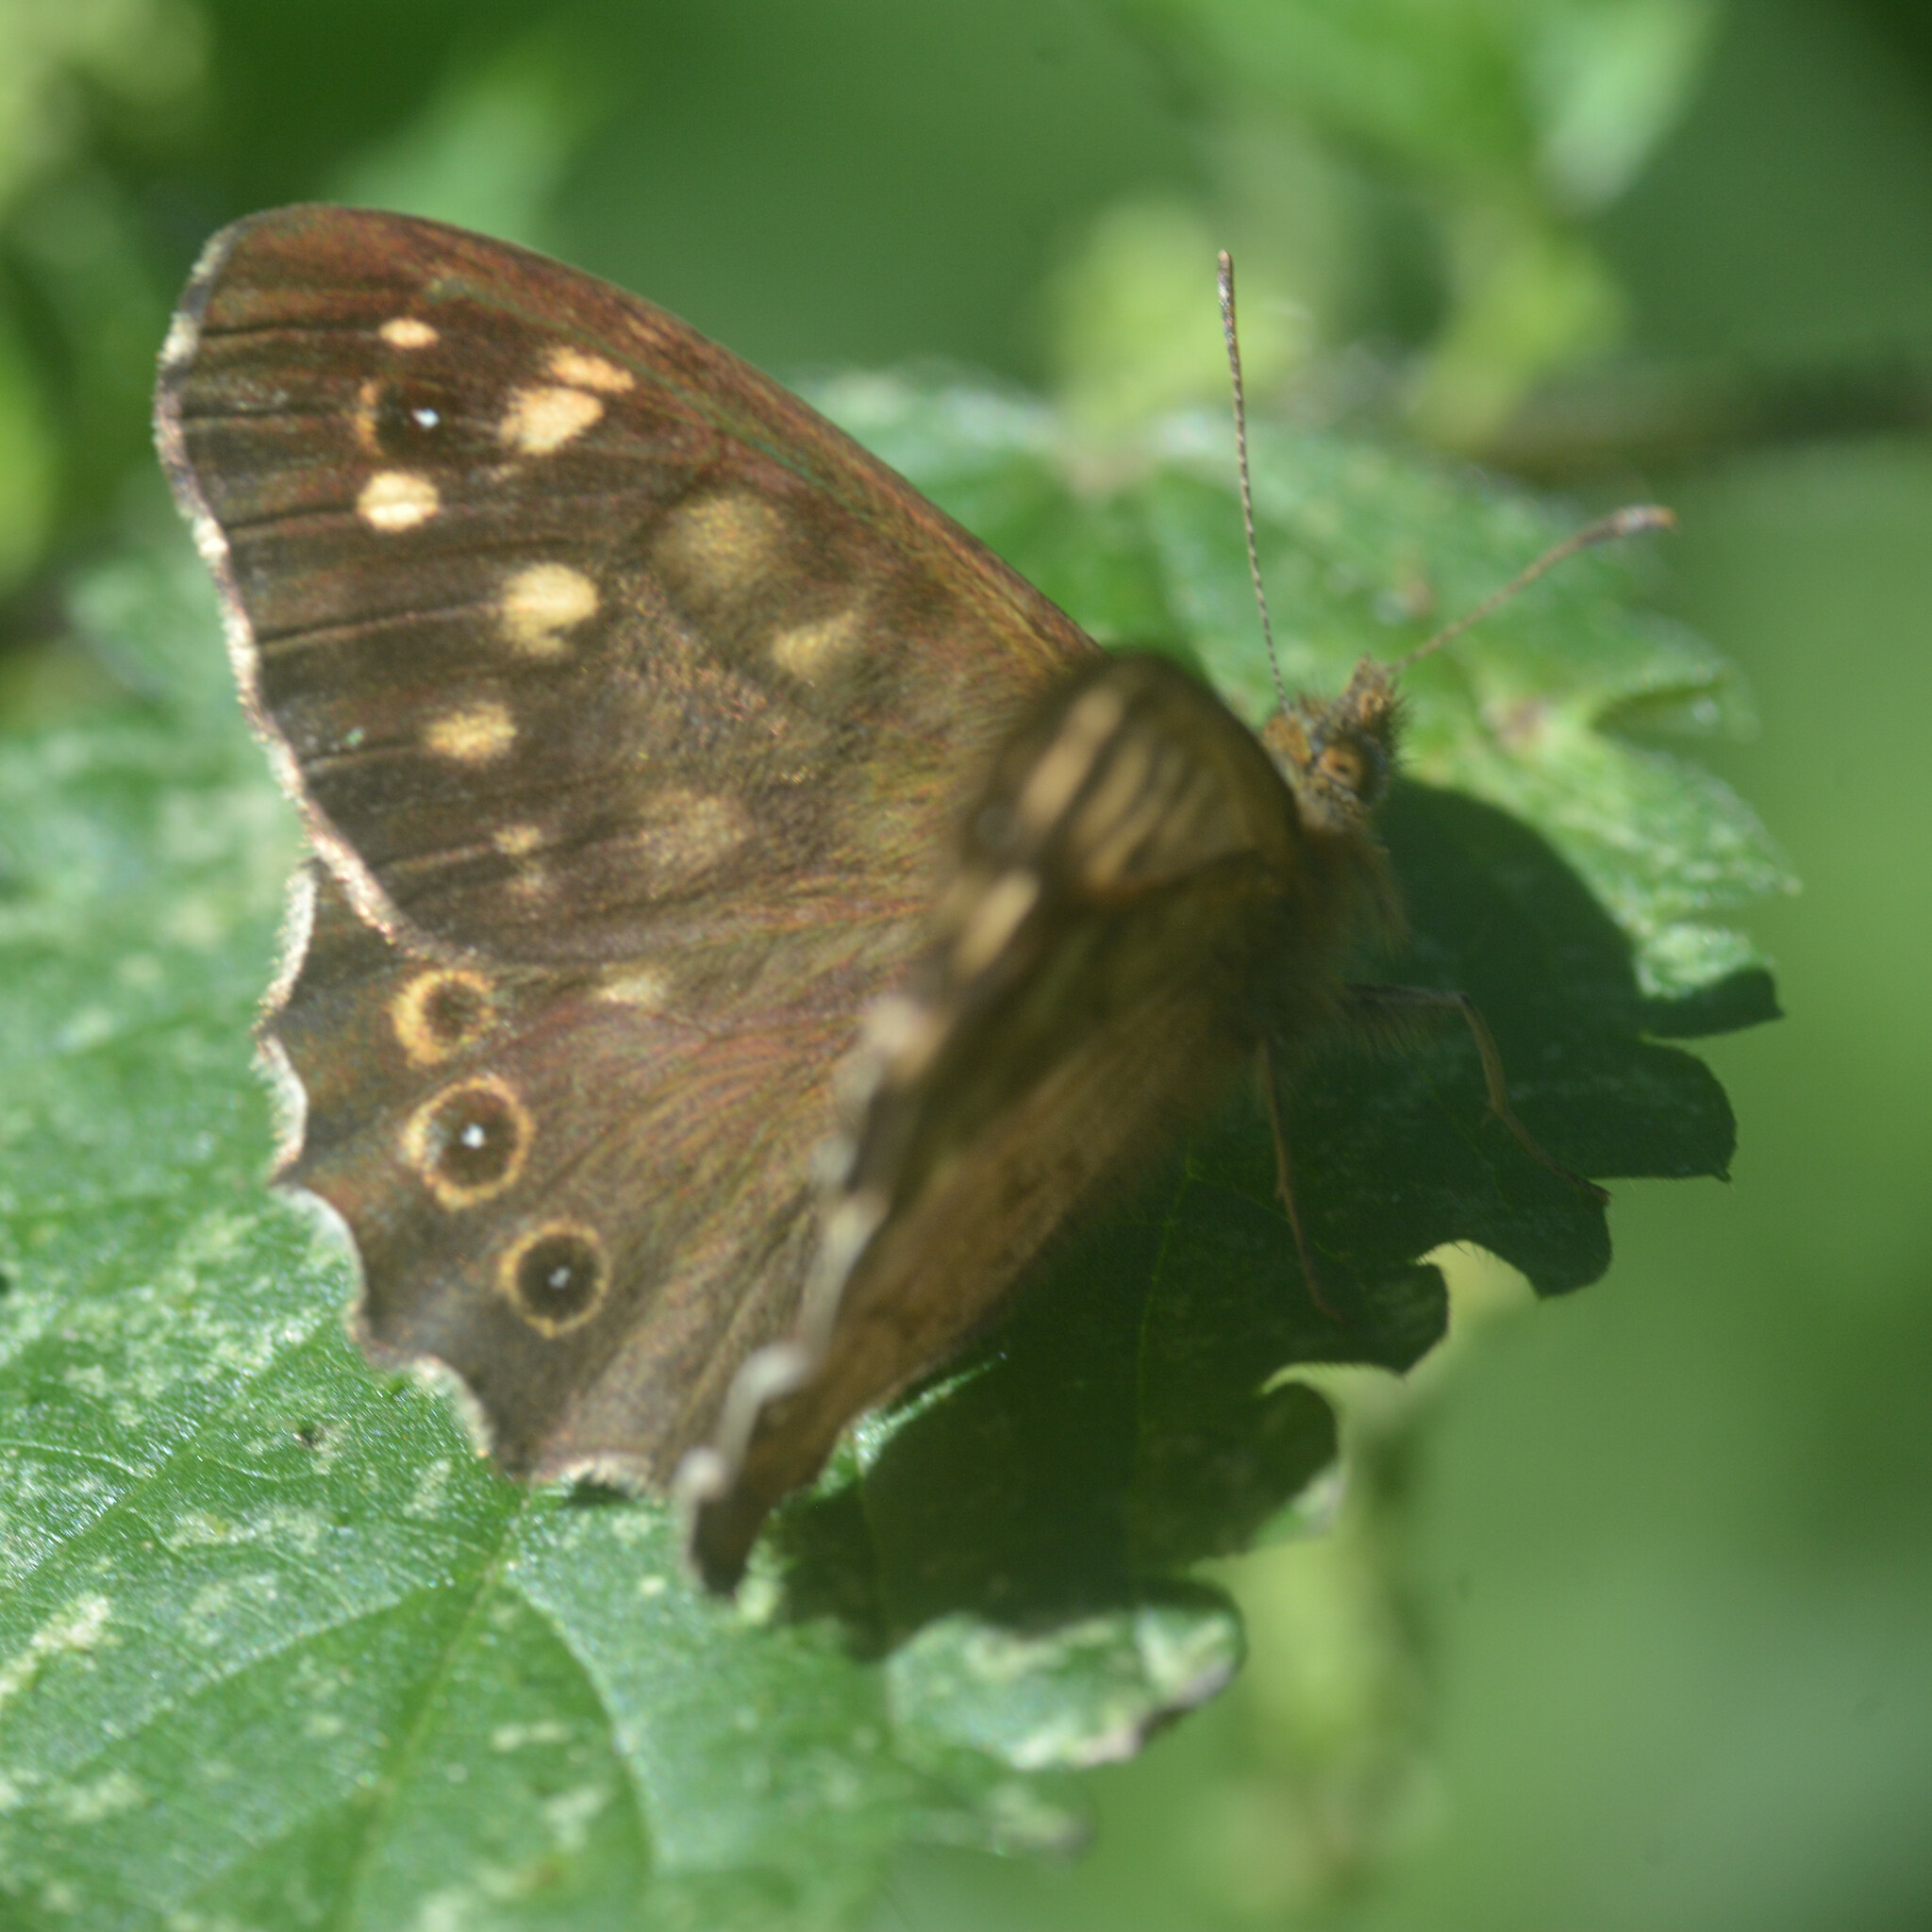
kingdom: Animalia
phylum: Arthropoda
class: Insecta
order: Lepidoptera
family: Nymphalidae
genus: Pararge
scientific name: Pararge aegeria
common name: Speckled wood
